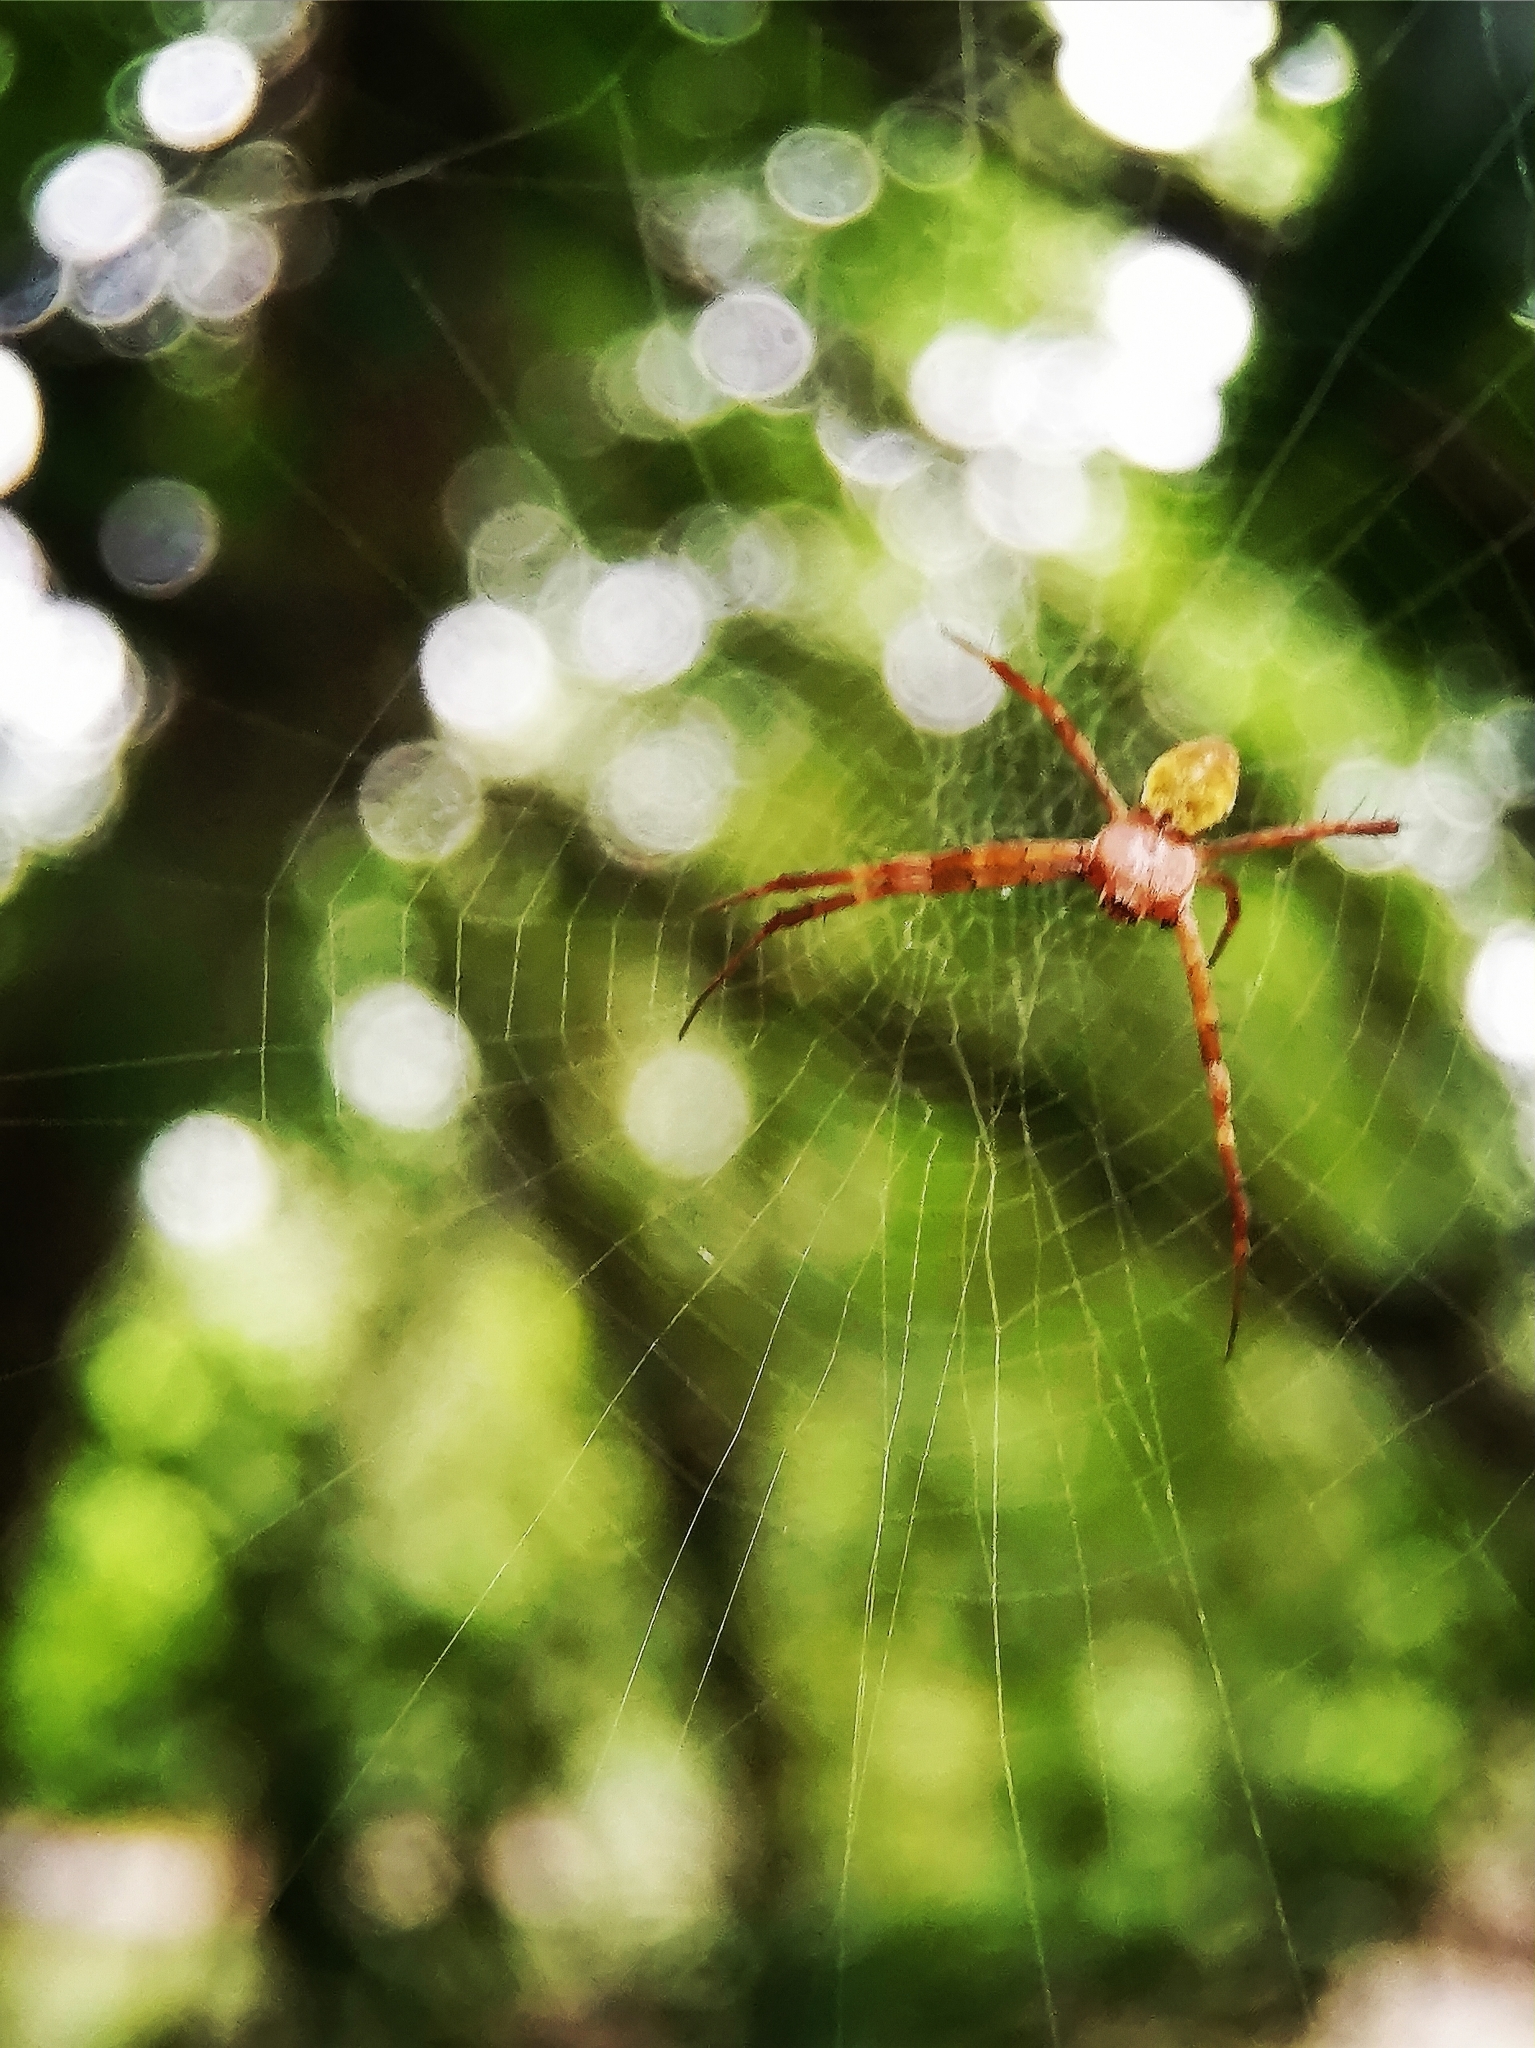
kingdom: Animalia
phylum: Arthropoda
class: Arachnida
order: Araneae
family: Araneidae
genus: Argiope
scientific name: Argiope
